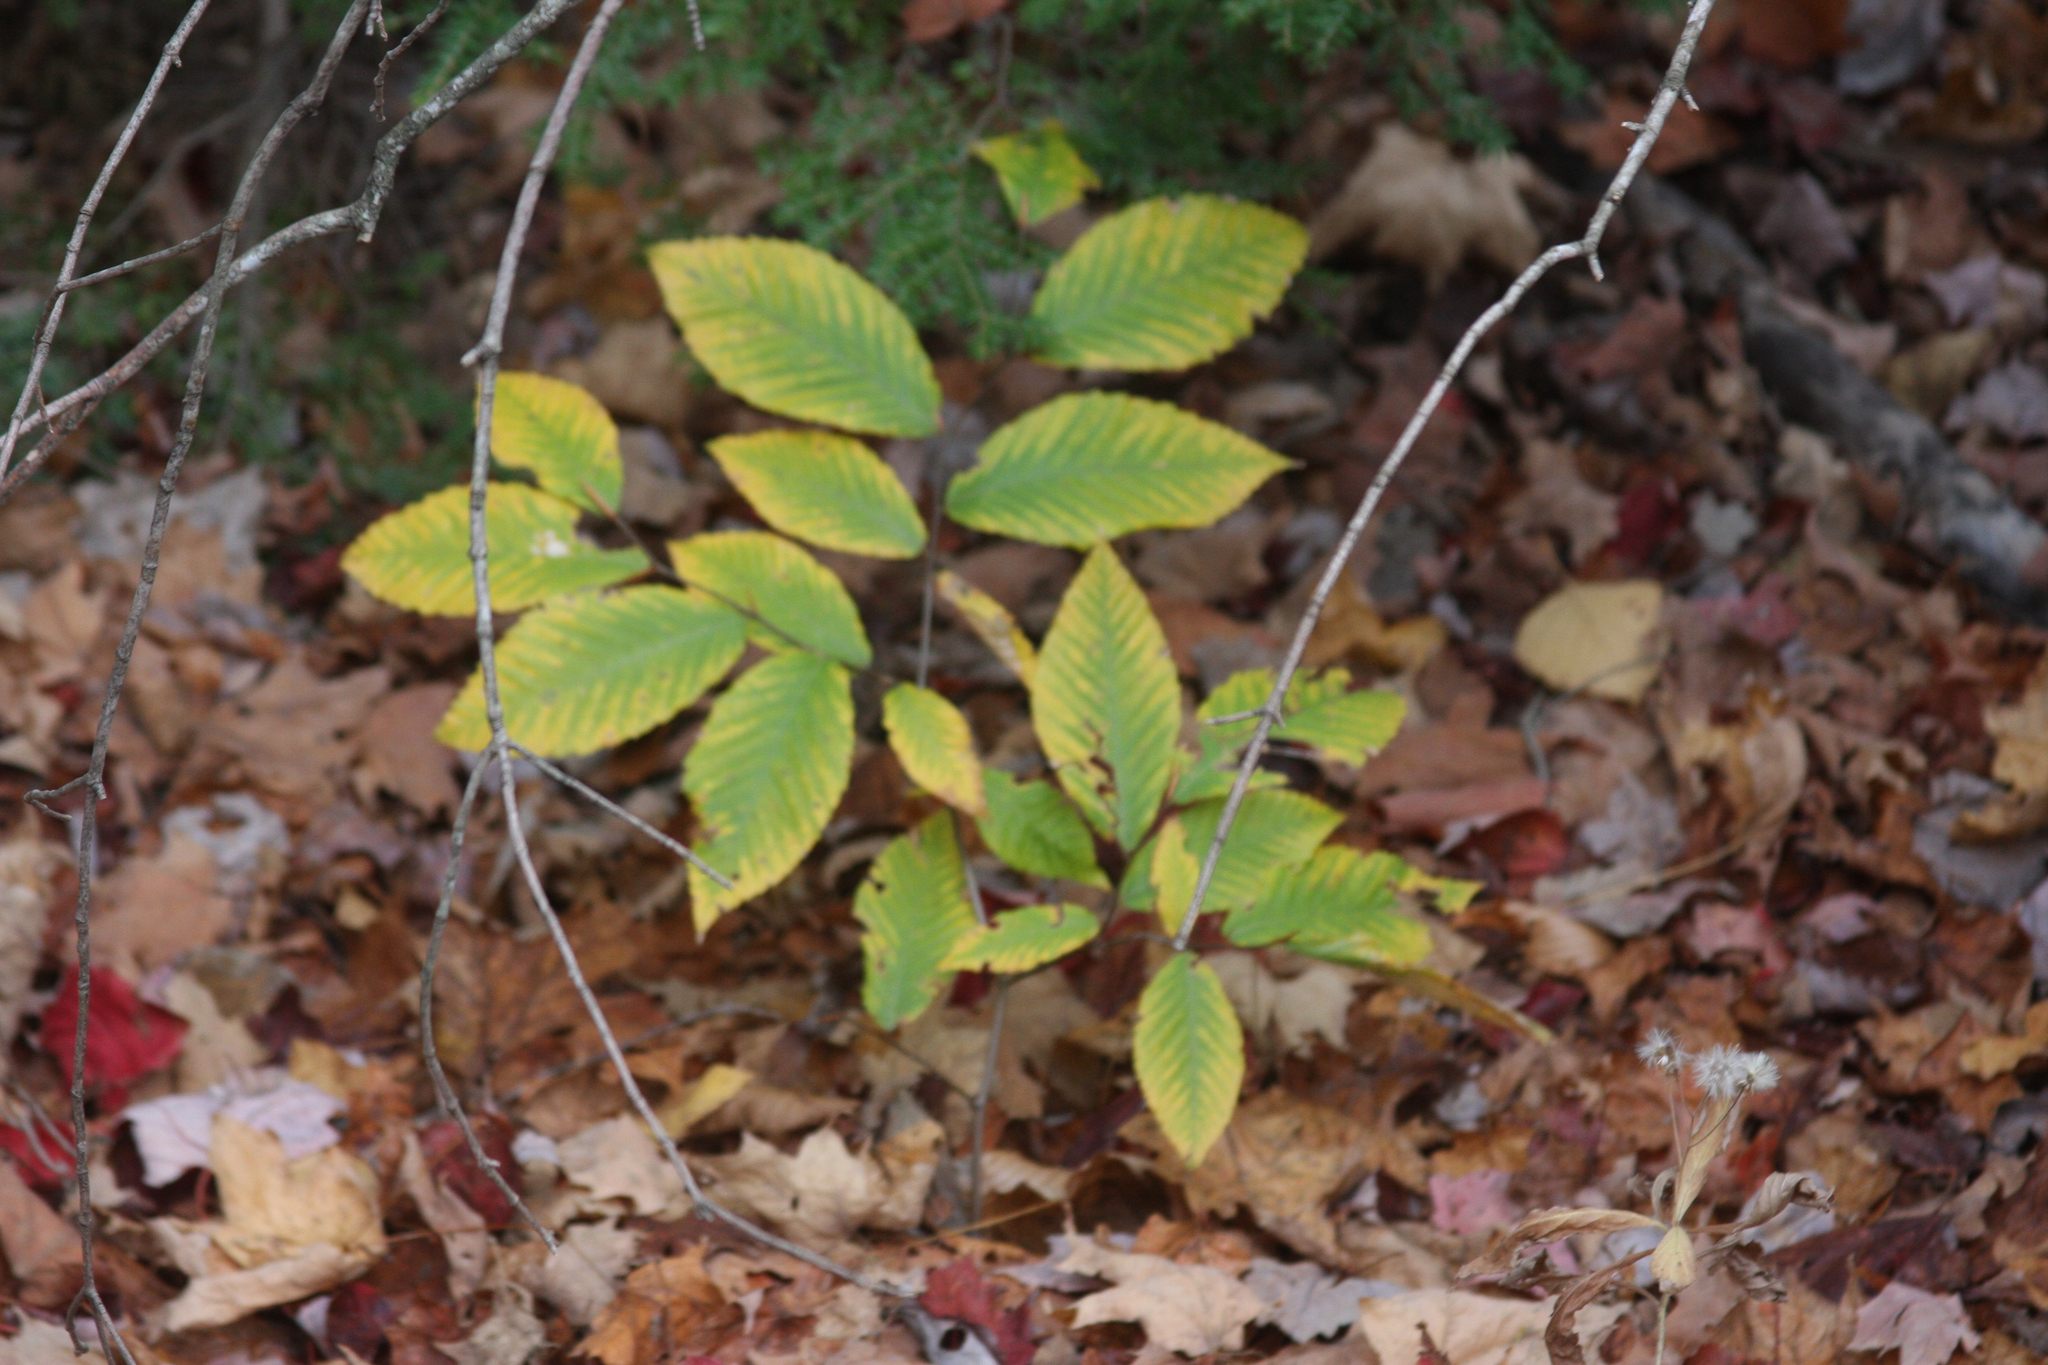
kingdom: Plantae
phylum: Tracheophyta
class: Magnoliopsida
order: Fagales
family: Fagaceae
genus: Fagus
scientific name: Fagus grandifolia
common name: American beech
